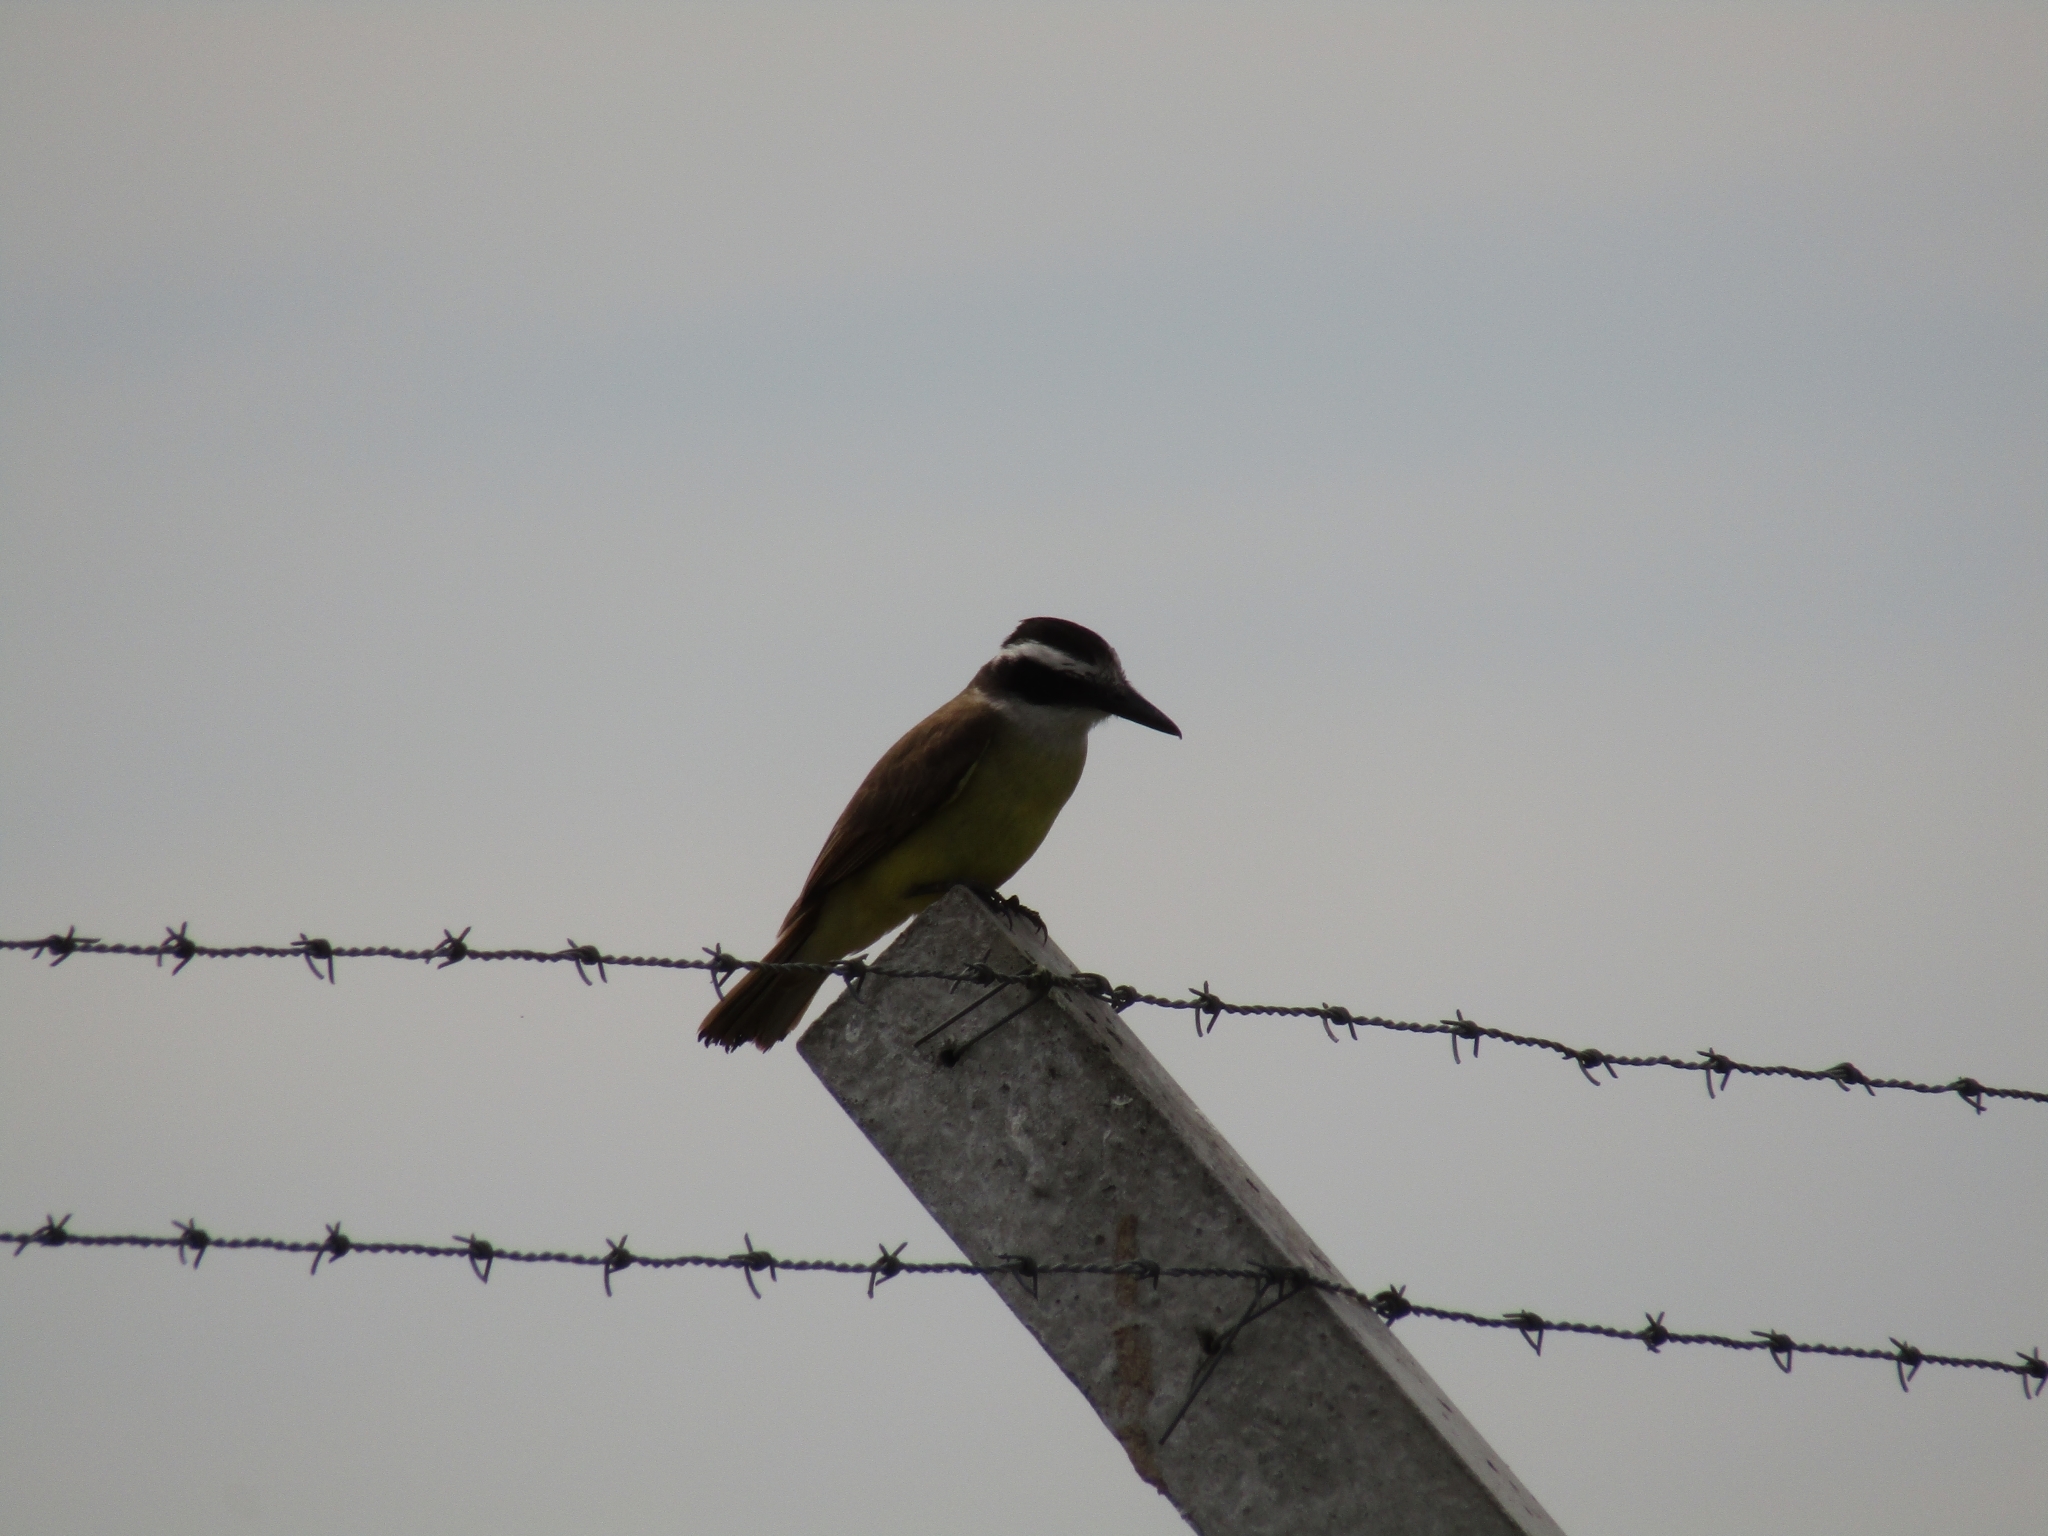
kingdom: Animalia
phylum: Chordata
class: Aves
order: Passeriformes
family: Tyrannidae
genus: Pitangus
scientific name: Pitangus sulphuratus
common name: Great kiskadee
